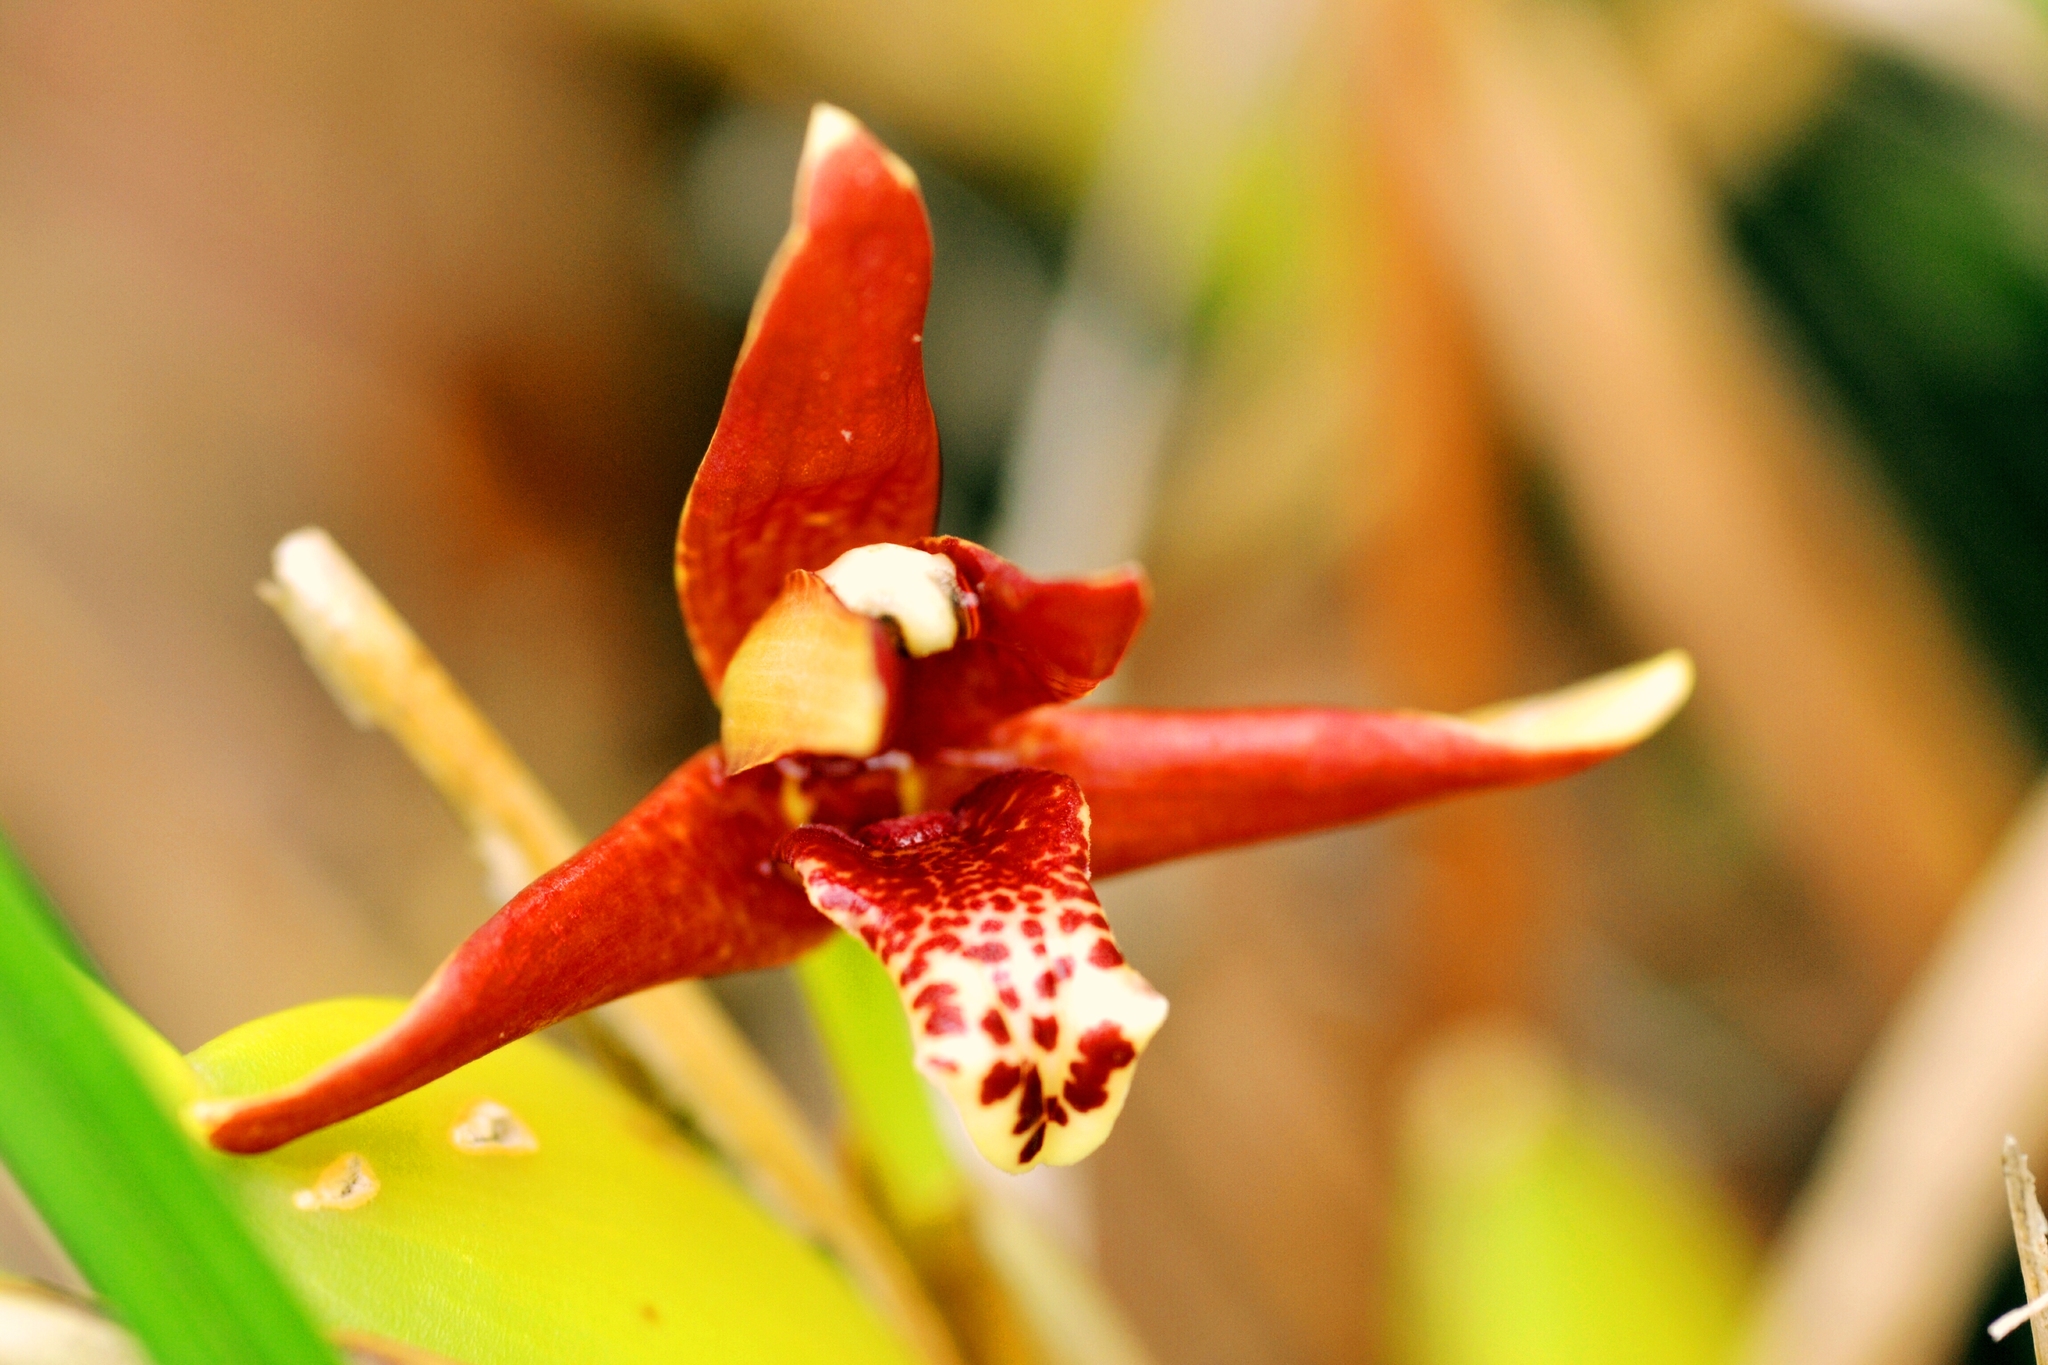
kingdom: Plantae
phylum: Tracheophyta
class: Liliopsida
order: Asparagales
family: Orchidaceae
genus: Maxillaria
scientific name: Maxillaria tenuifolia
